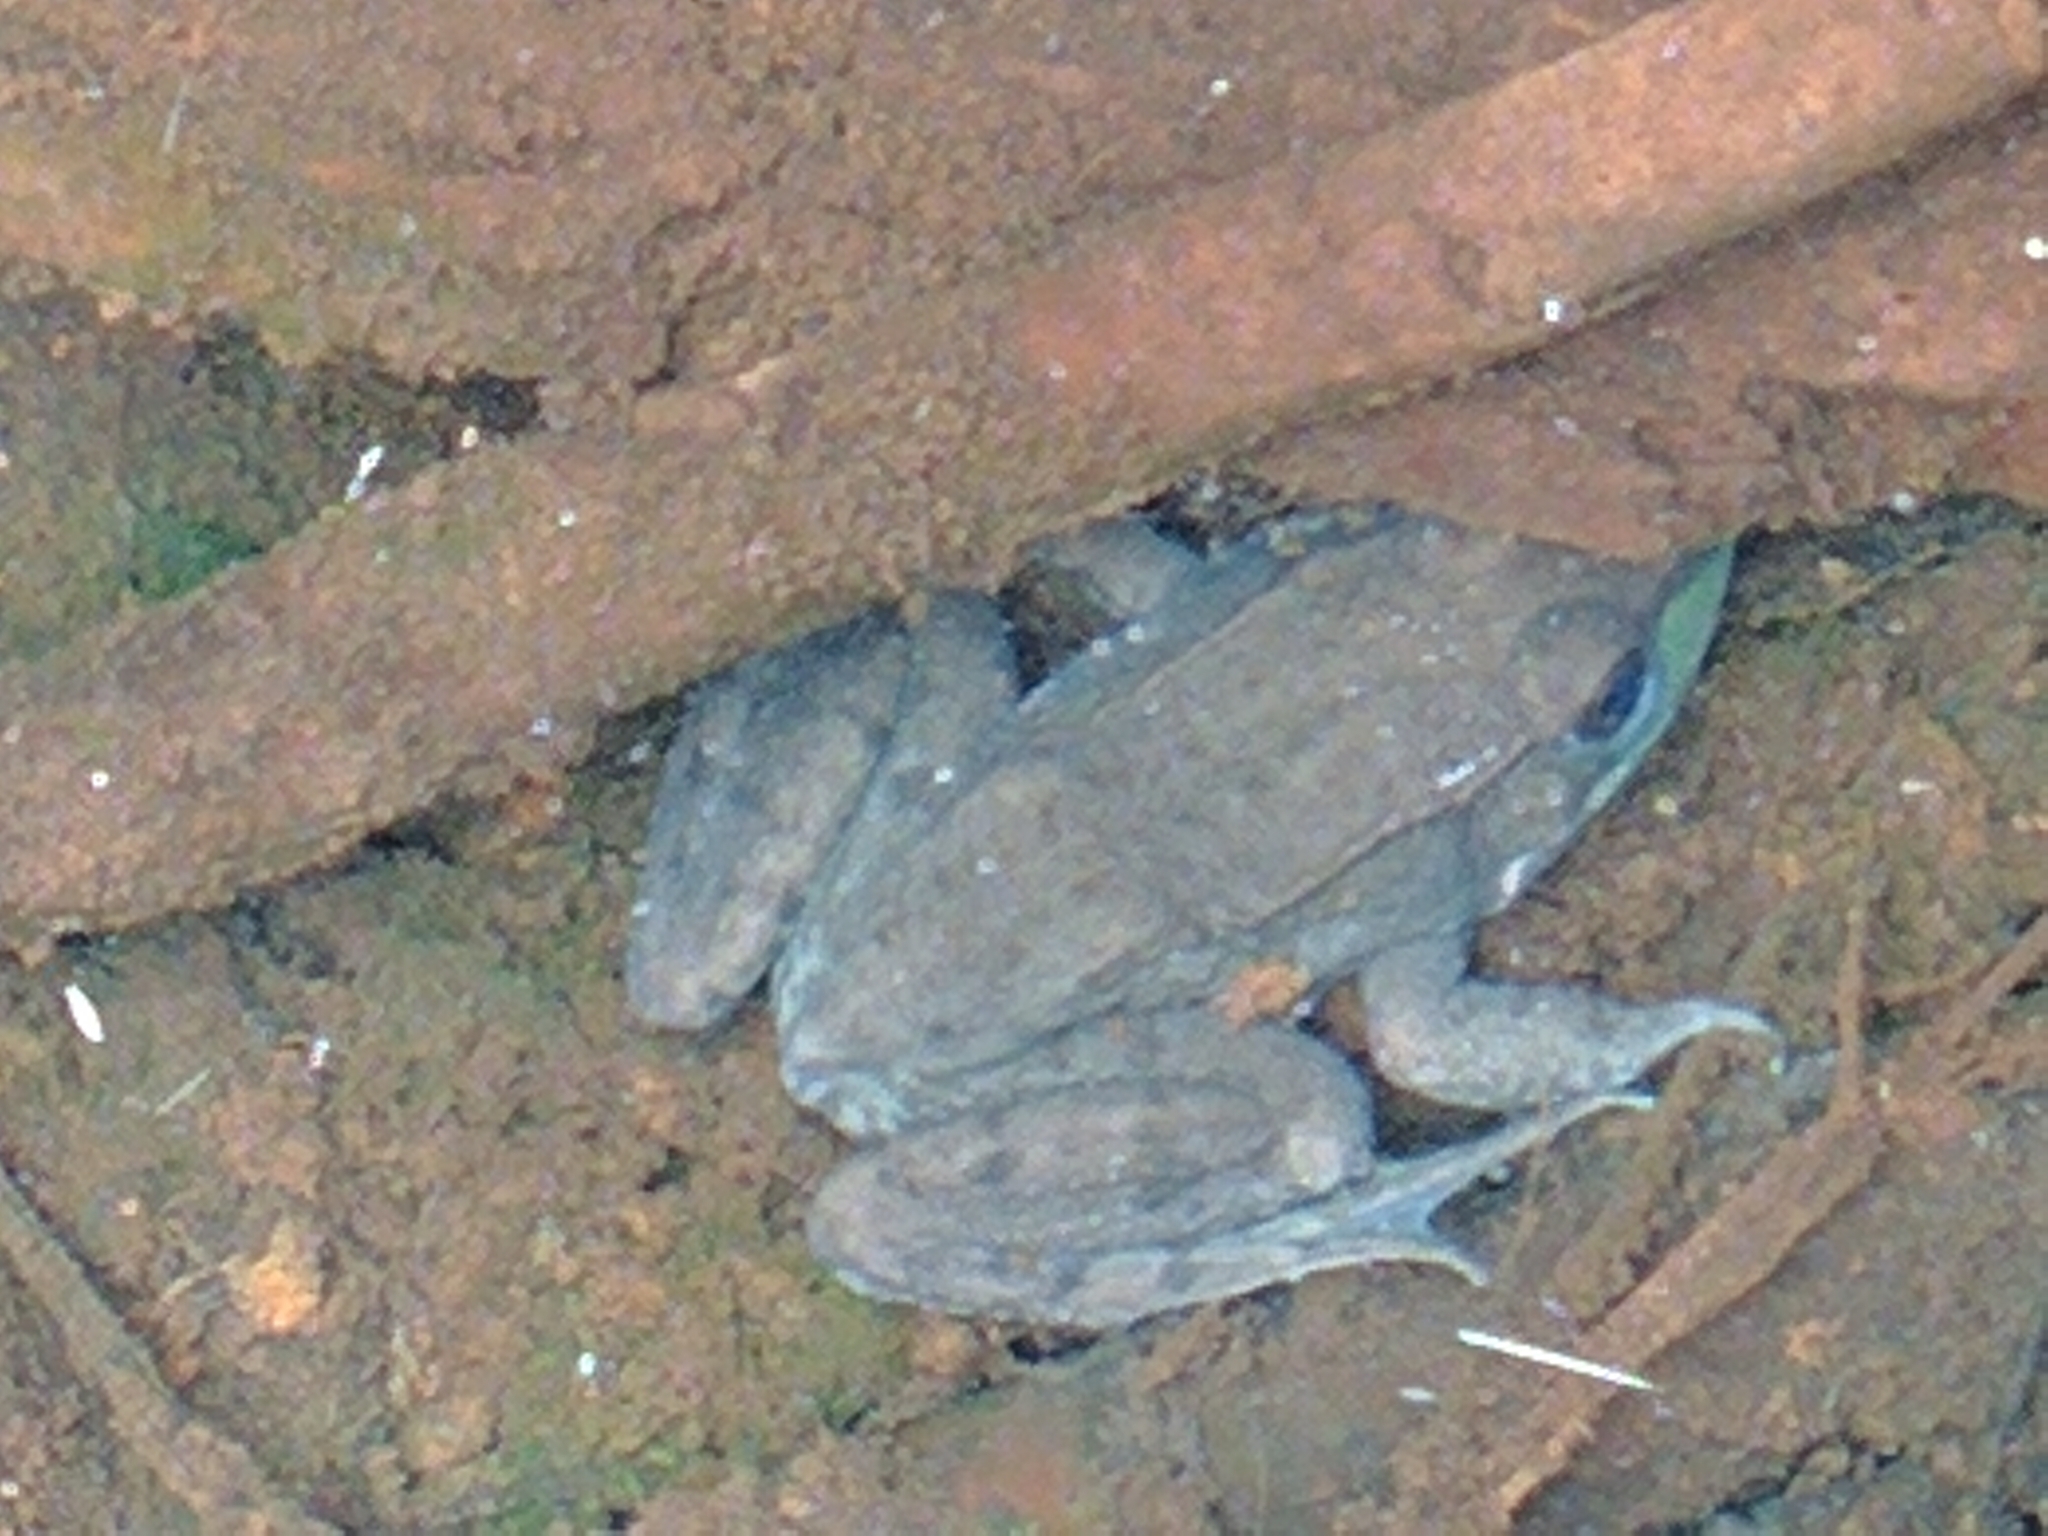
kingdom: Animalia
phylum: Chordata
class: Amphibia
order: Anura
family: Ranidae
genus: Lithobates
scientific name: Lithobates clamitans
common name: Green frog
